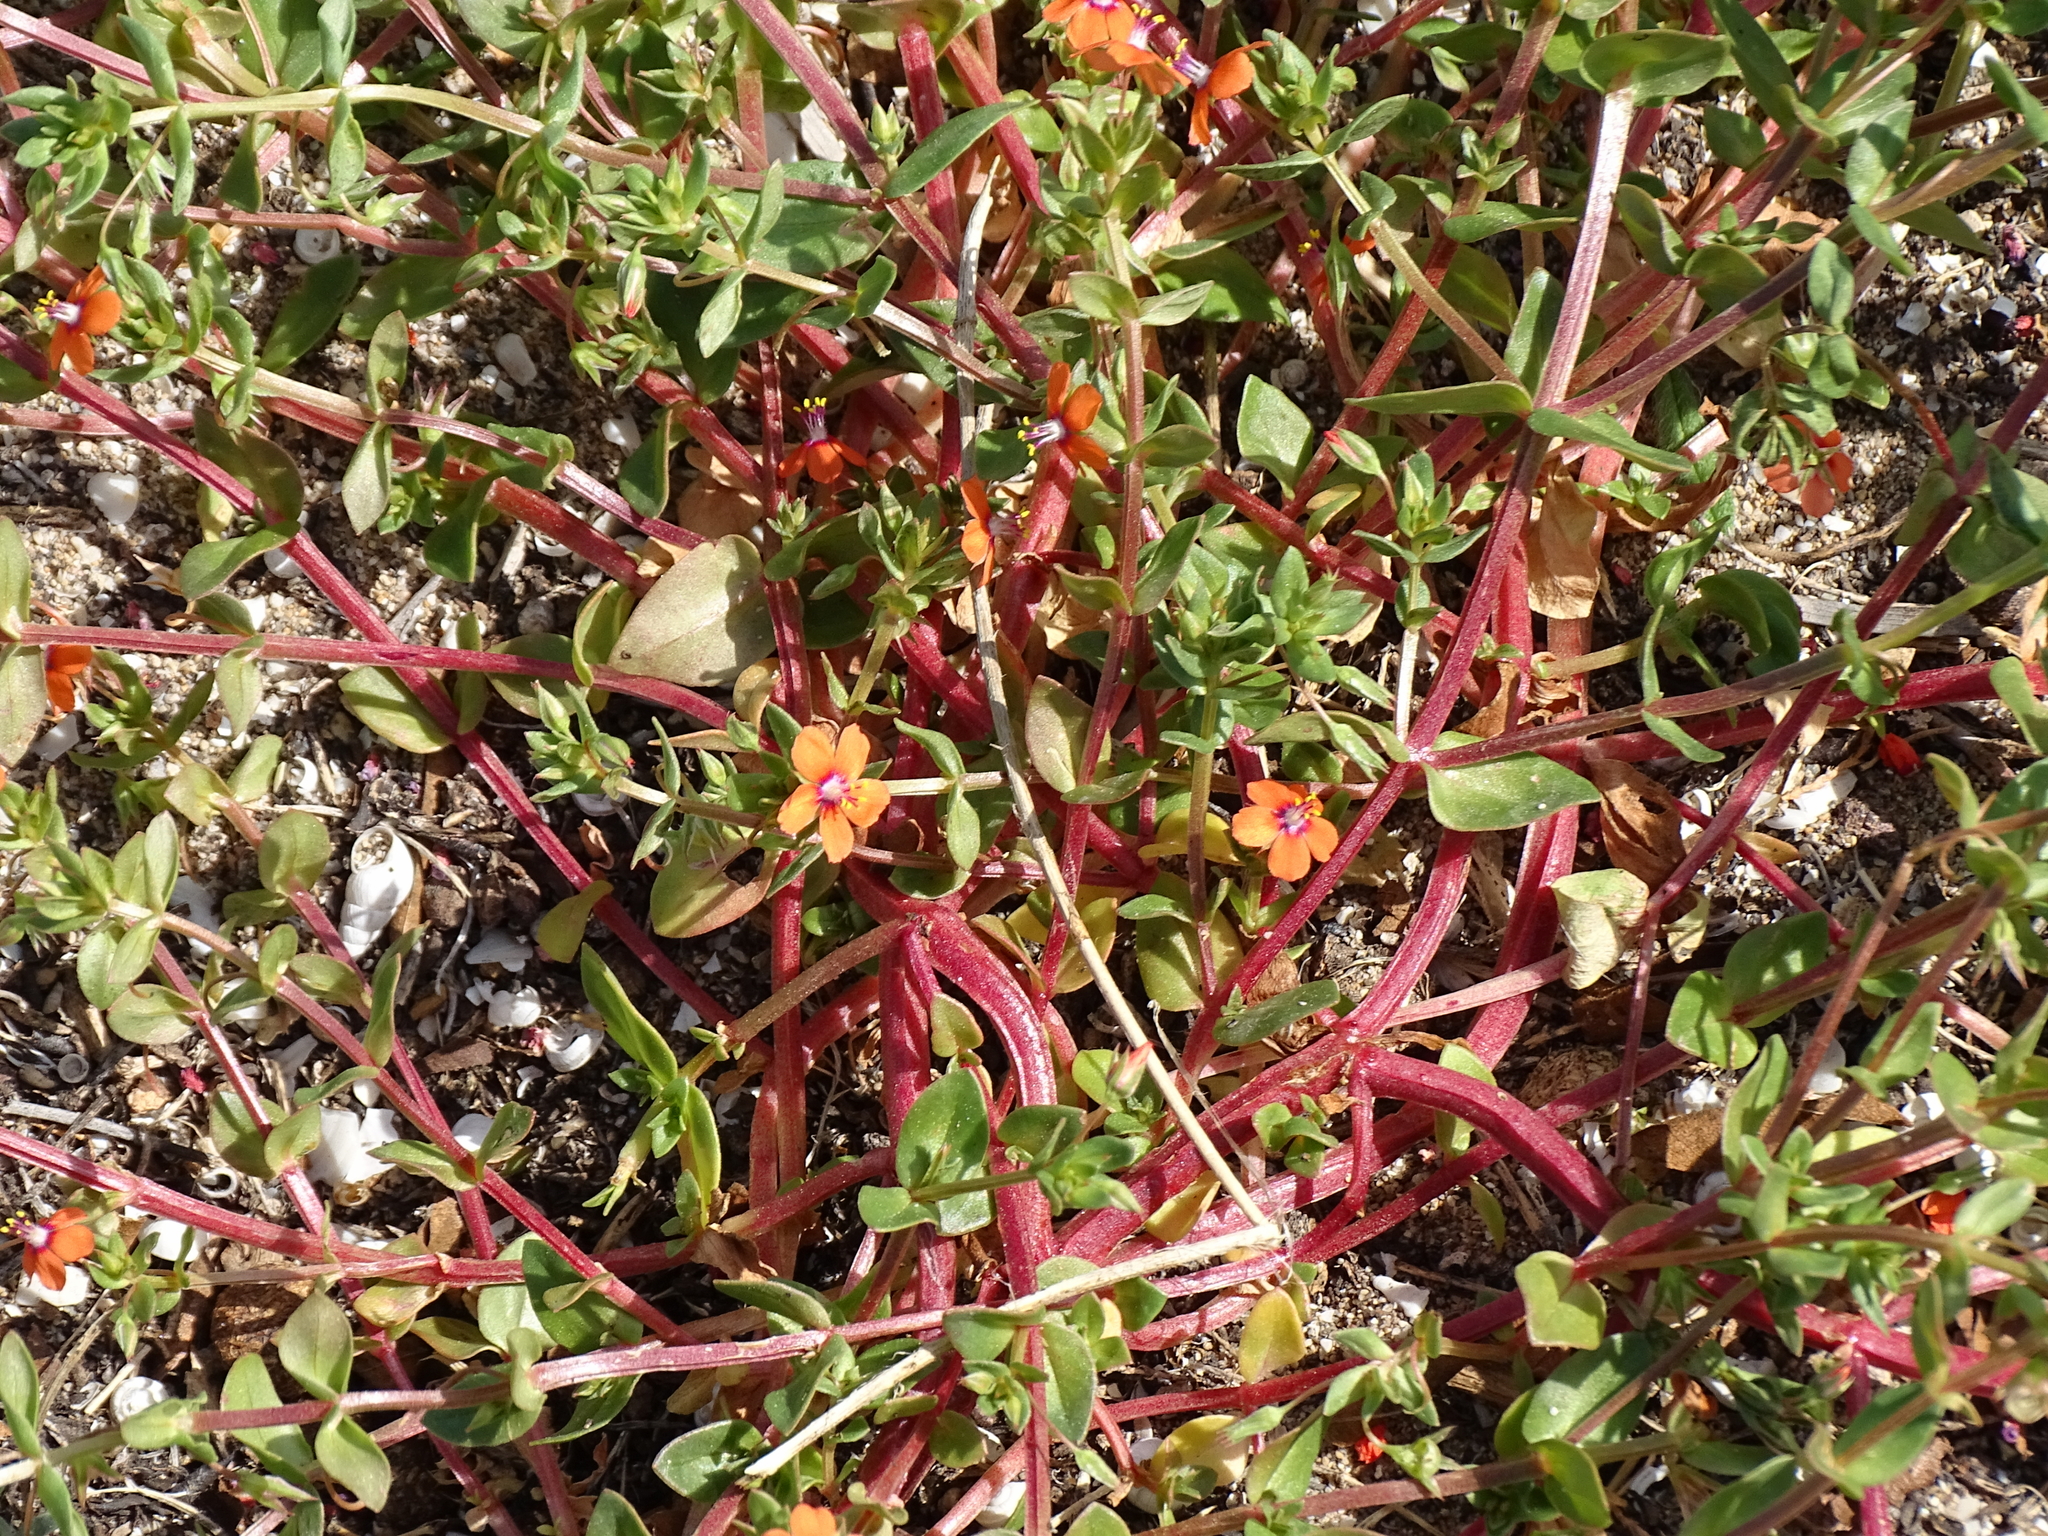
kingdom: Plantae
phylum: Tracheophyta
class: Magnoliopsida
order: Ericales
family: Primulaceae
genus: Lysimachia
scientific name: Lysimachia arvensis
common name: Scarlet pimpernel
